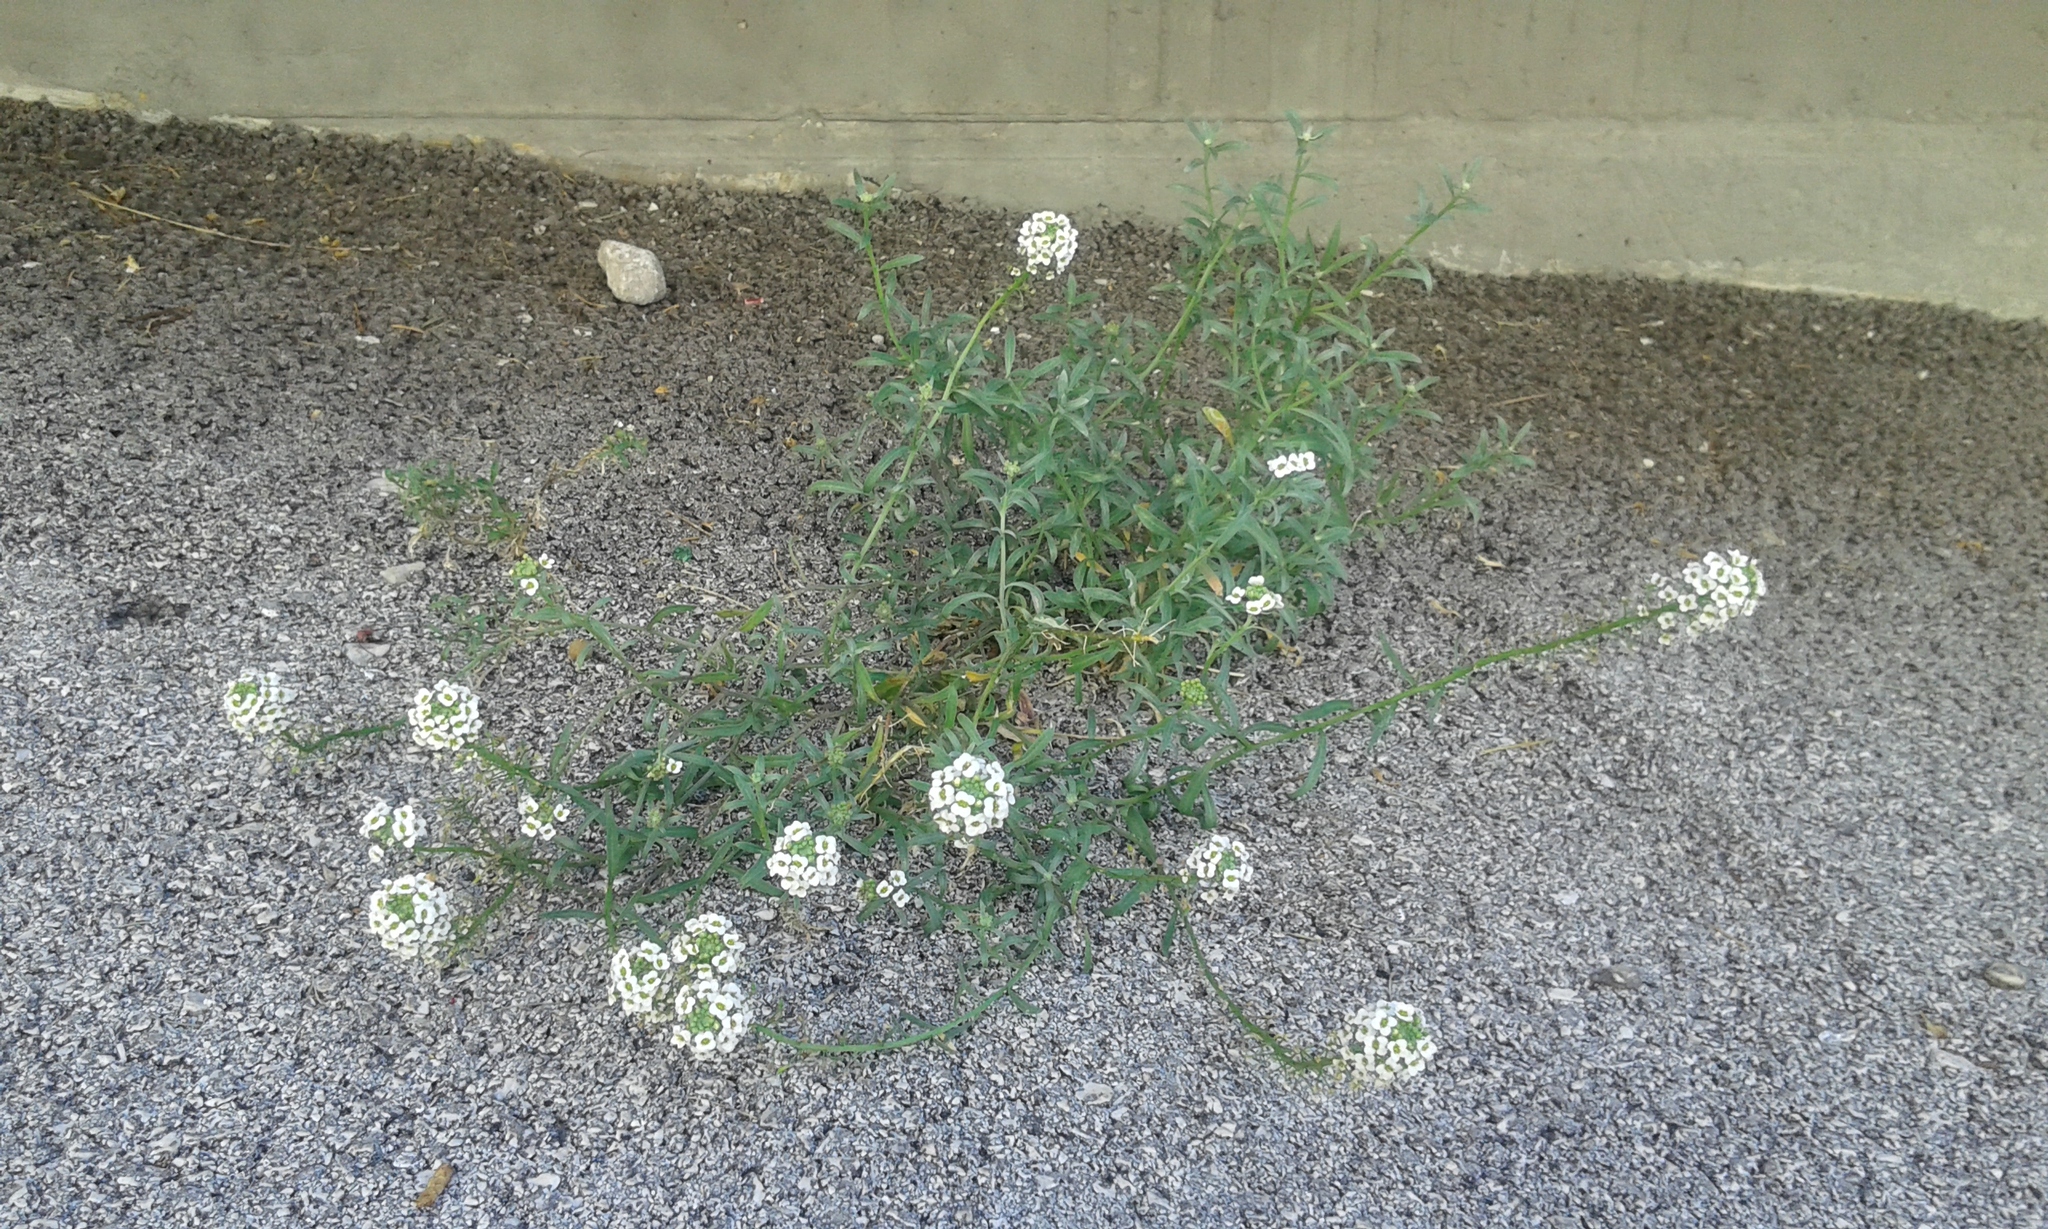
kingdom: Plantae
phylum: Tracheophyta
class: Magnoliopsida
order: Brassicales
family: Brassicaceae
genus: Lobularia
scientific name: Lobularia maritima
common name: Sweet alison
